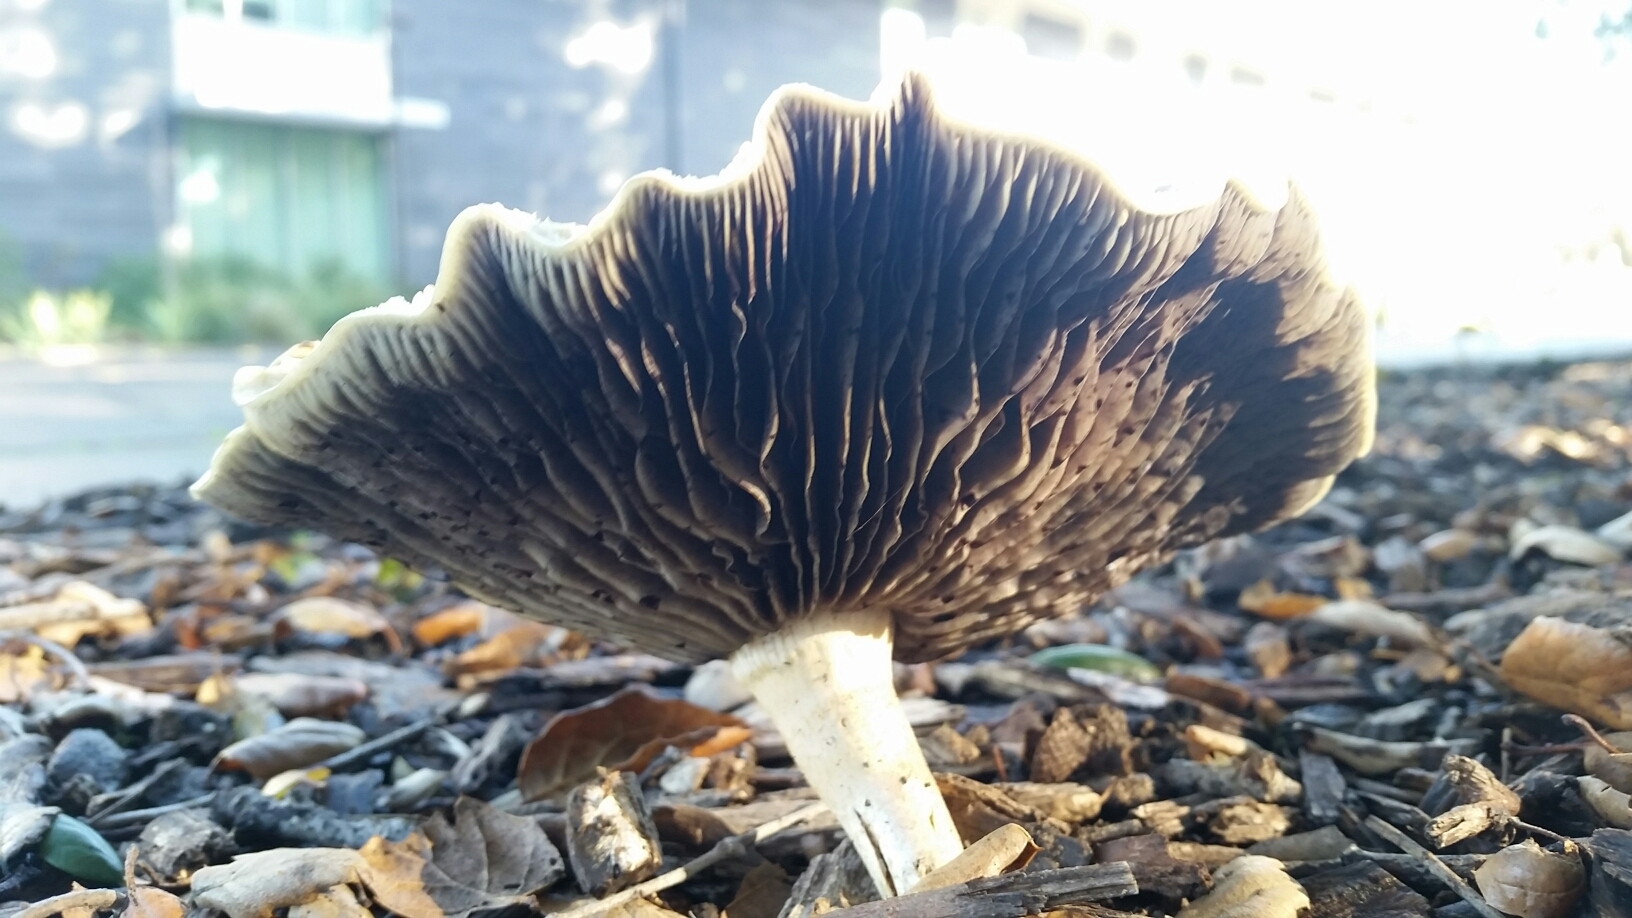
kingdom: Fungi
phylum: Basidiomycota
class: Agaricomycetes
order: Agaricales
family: Strophariaceae
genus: Leratiomyces
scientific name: Leratiomyces percevalii
